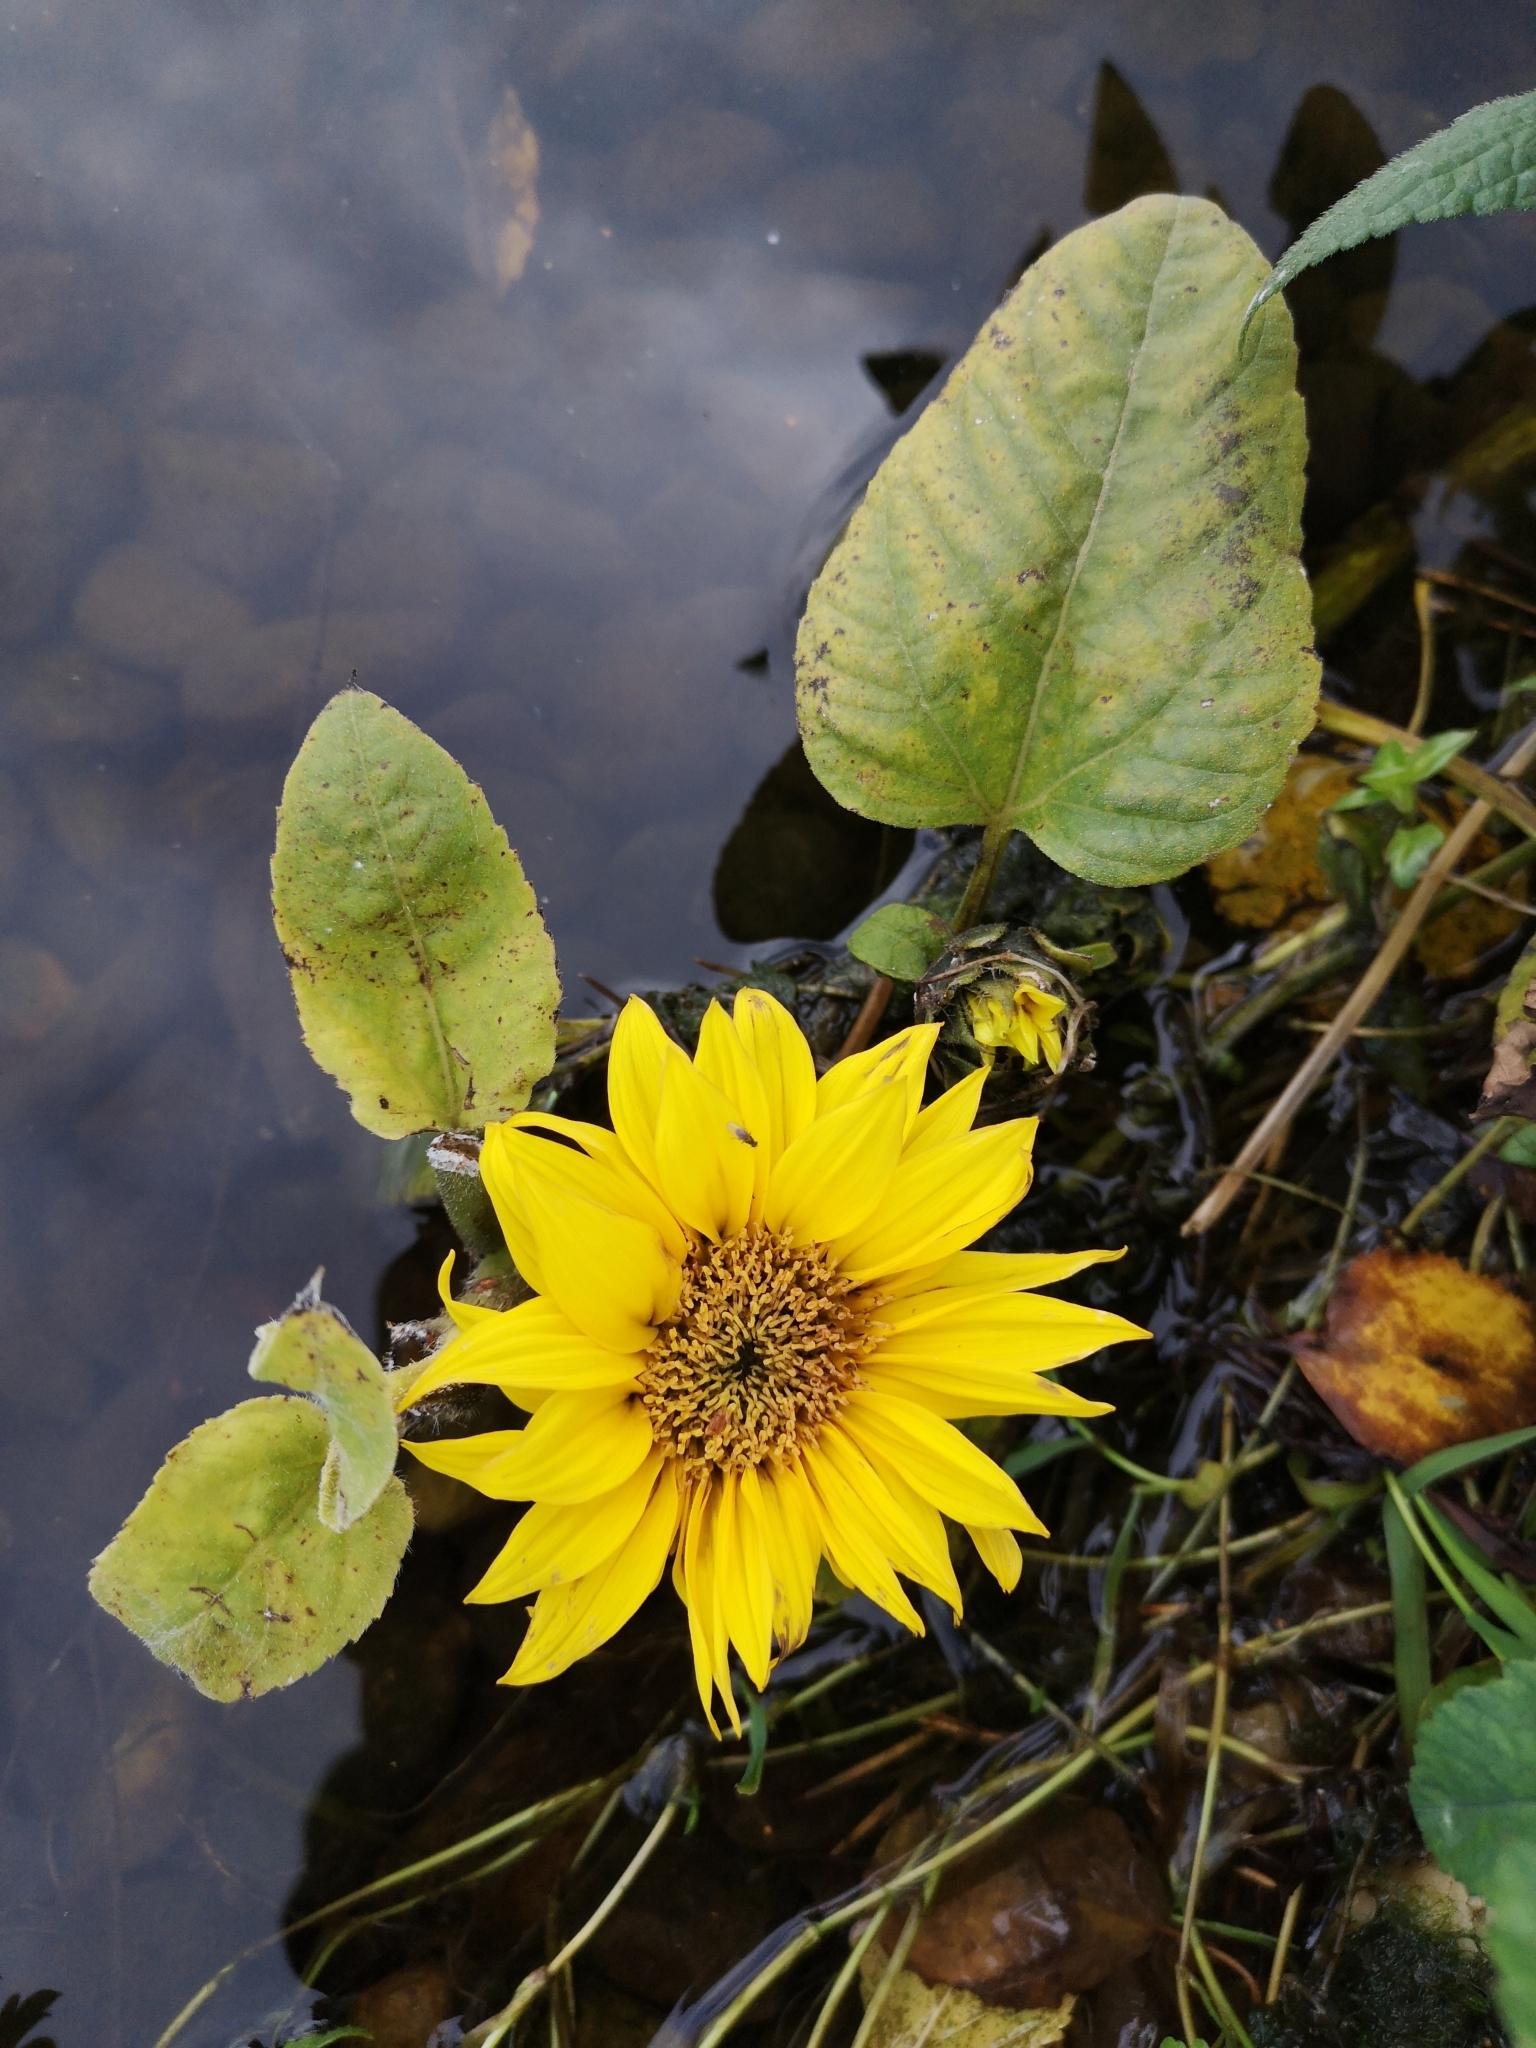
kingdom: Plantae
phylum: Tracheophyta
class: Magnoliopsida
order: Asterales
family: Asteraceae
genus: Helianthus
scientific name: Helianthus annuus
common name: Sunflower
